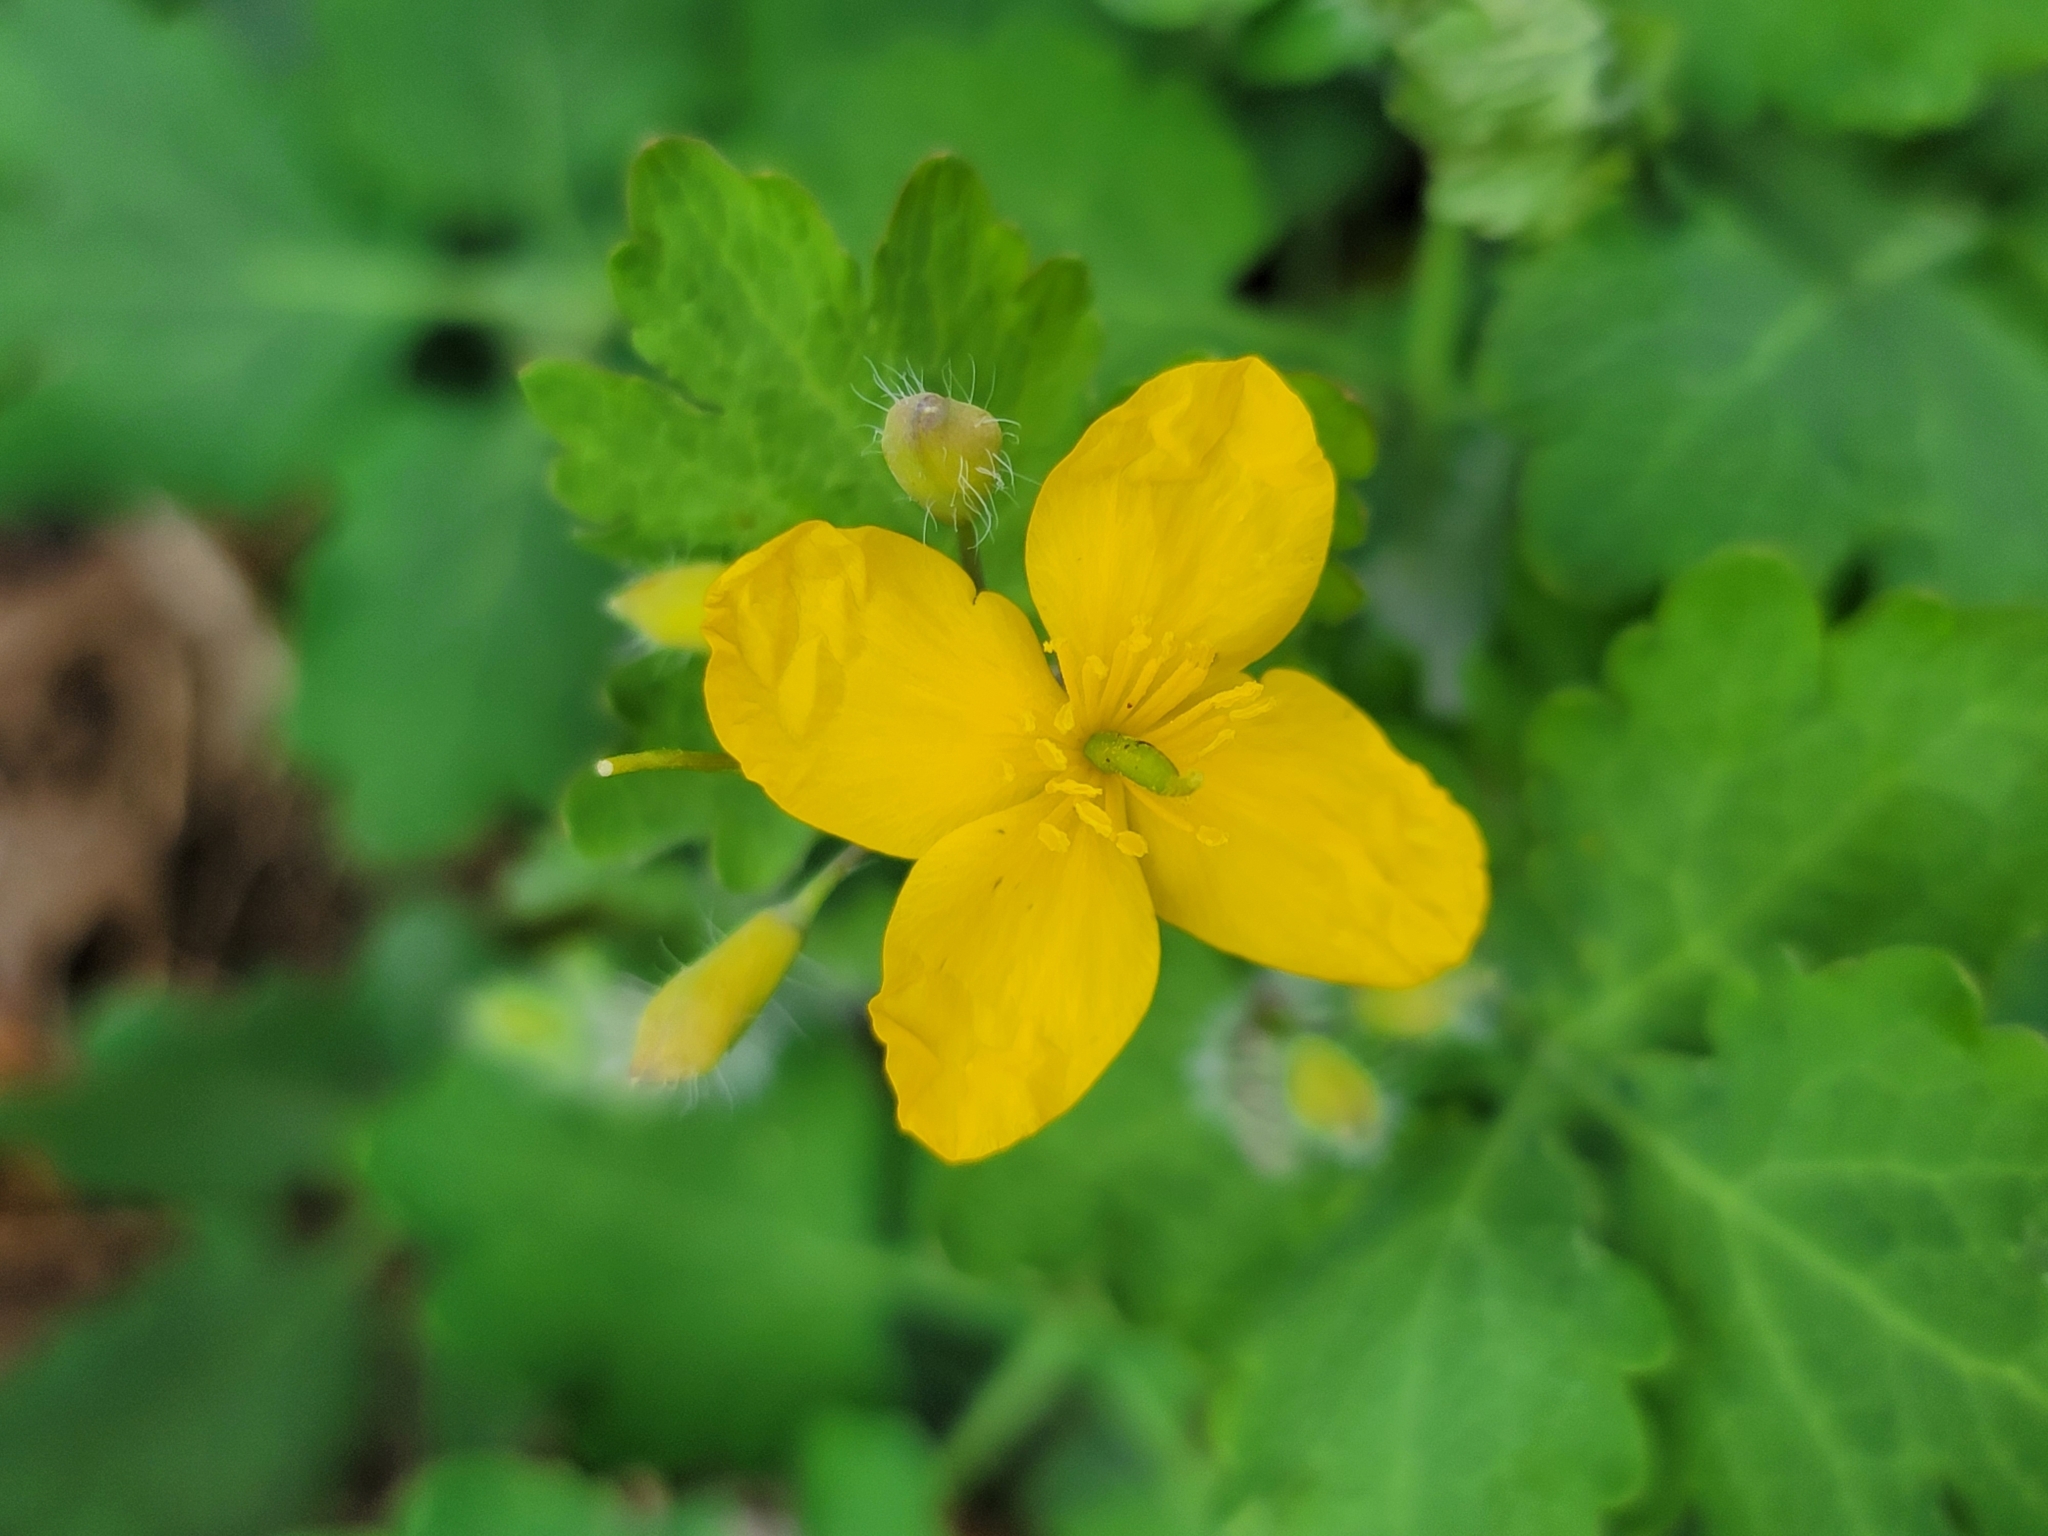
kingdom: Plantae
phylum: Tracheophyta
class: Magnoliopsida
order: Ranunculales
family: Papaveraceae
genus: Chelidonium
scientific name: Chelidonium majus
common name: Greater celandine
